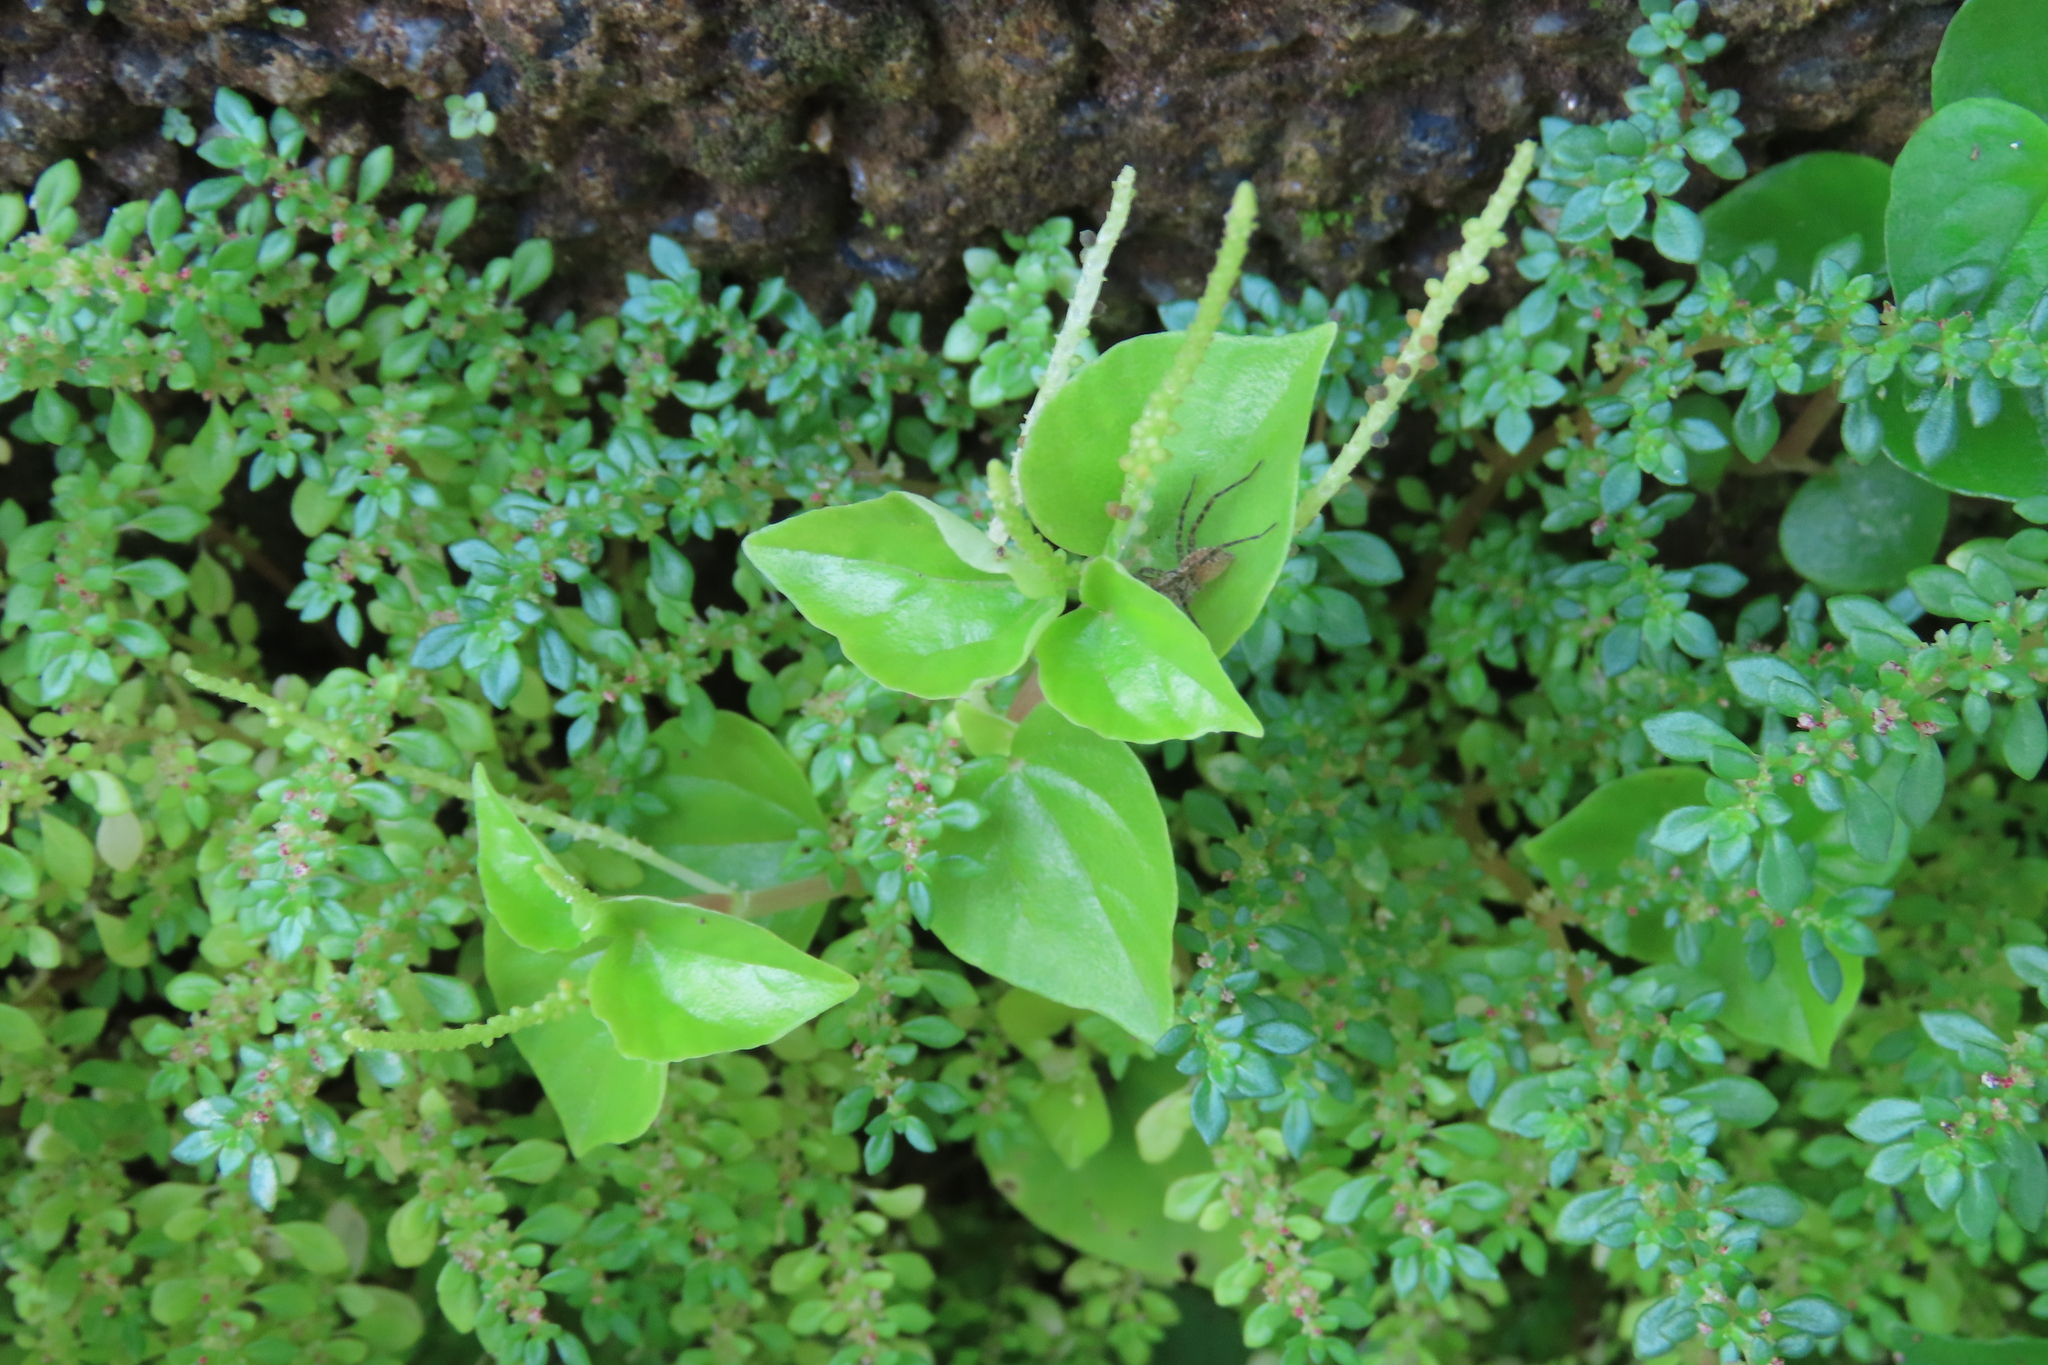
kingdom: Plantae
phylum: Tracheophyta
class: Magnoliopsida
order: Piperales
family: Piperaceae
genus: Peperomia
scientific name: Peperomia pellucida
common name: Man to man
